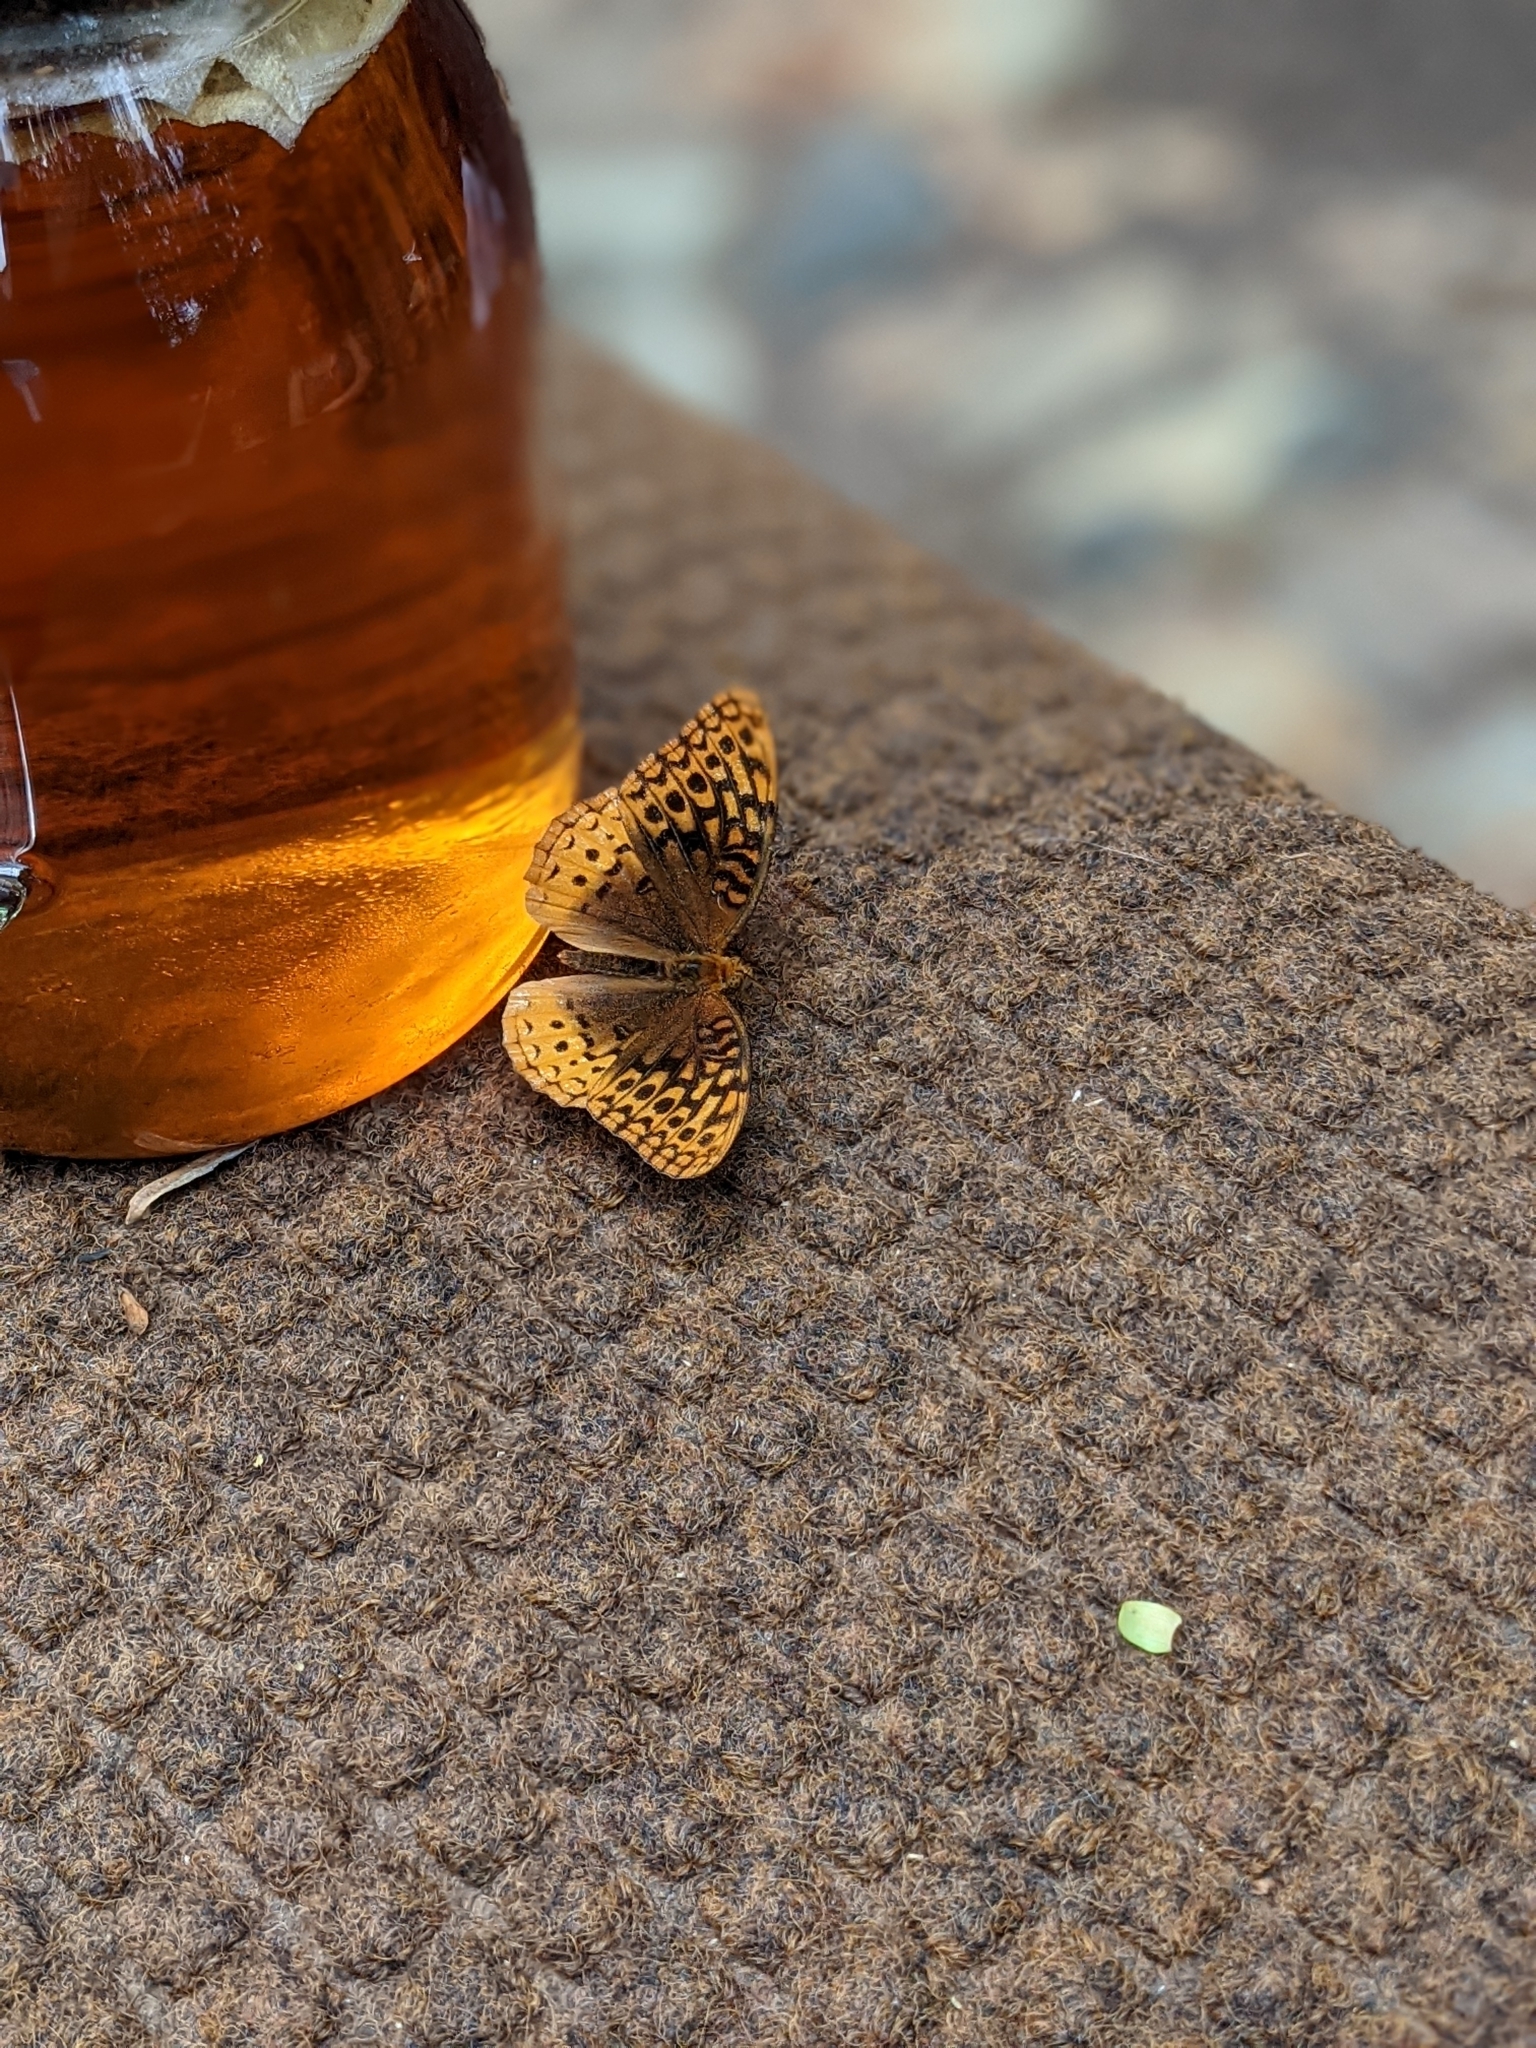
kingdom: Animalia
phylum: Arthropoda
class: Insecta
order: Lepidoptera
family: Nymphalidae
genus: Speyeria
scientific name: Speyeria cybele
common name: Great spangled fritillary
